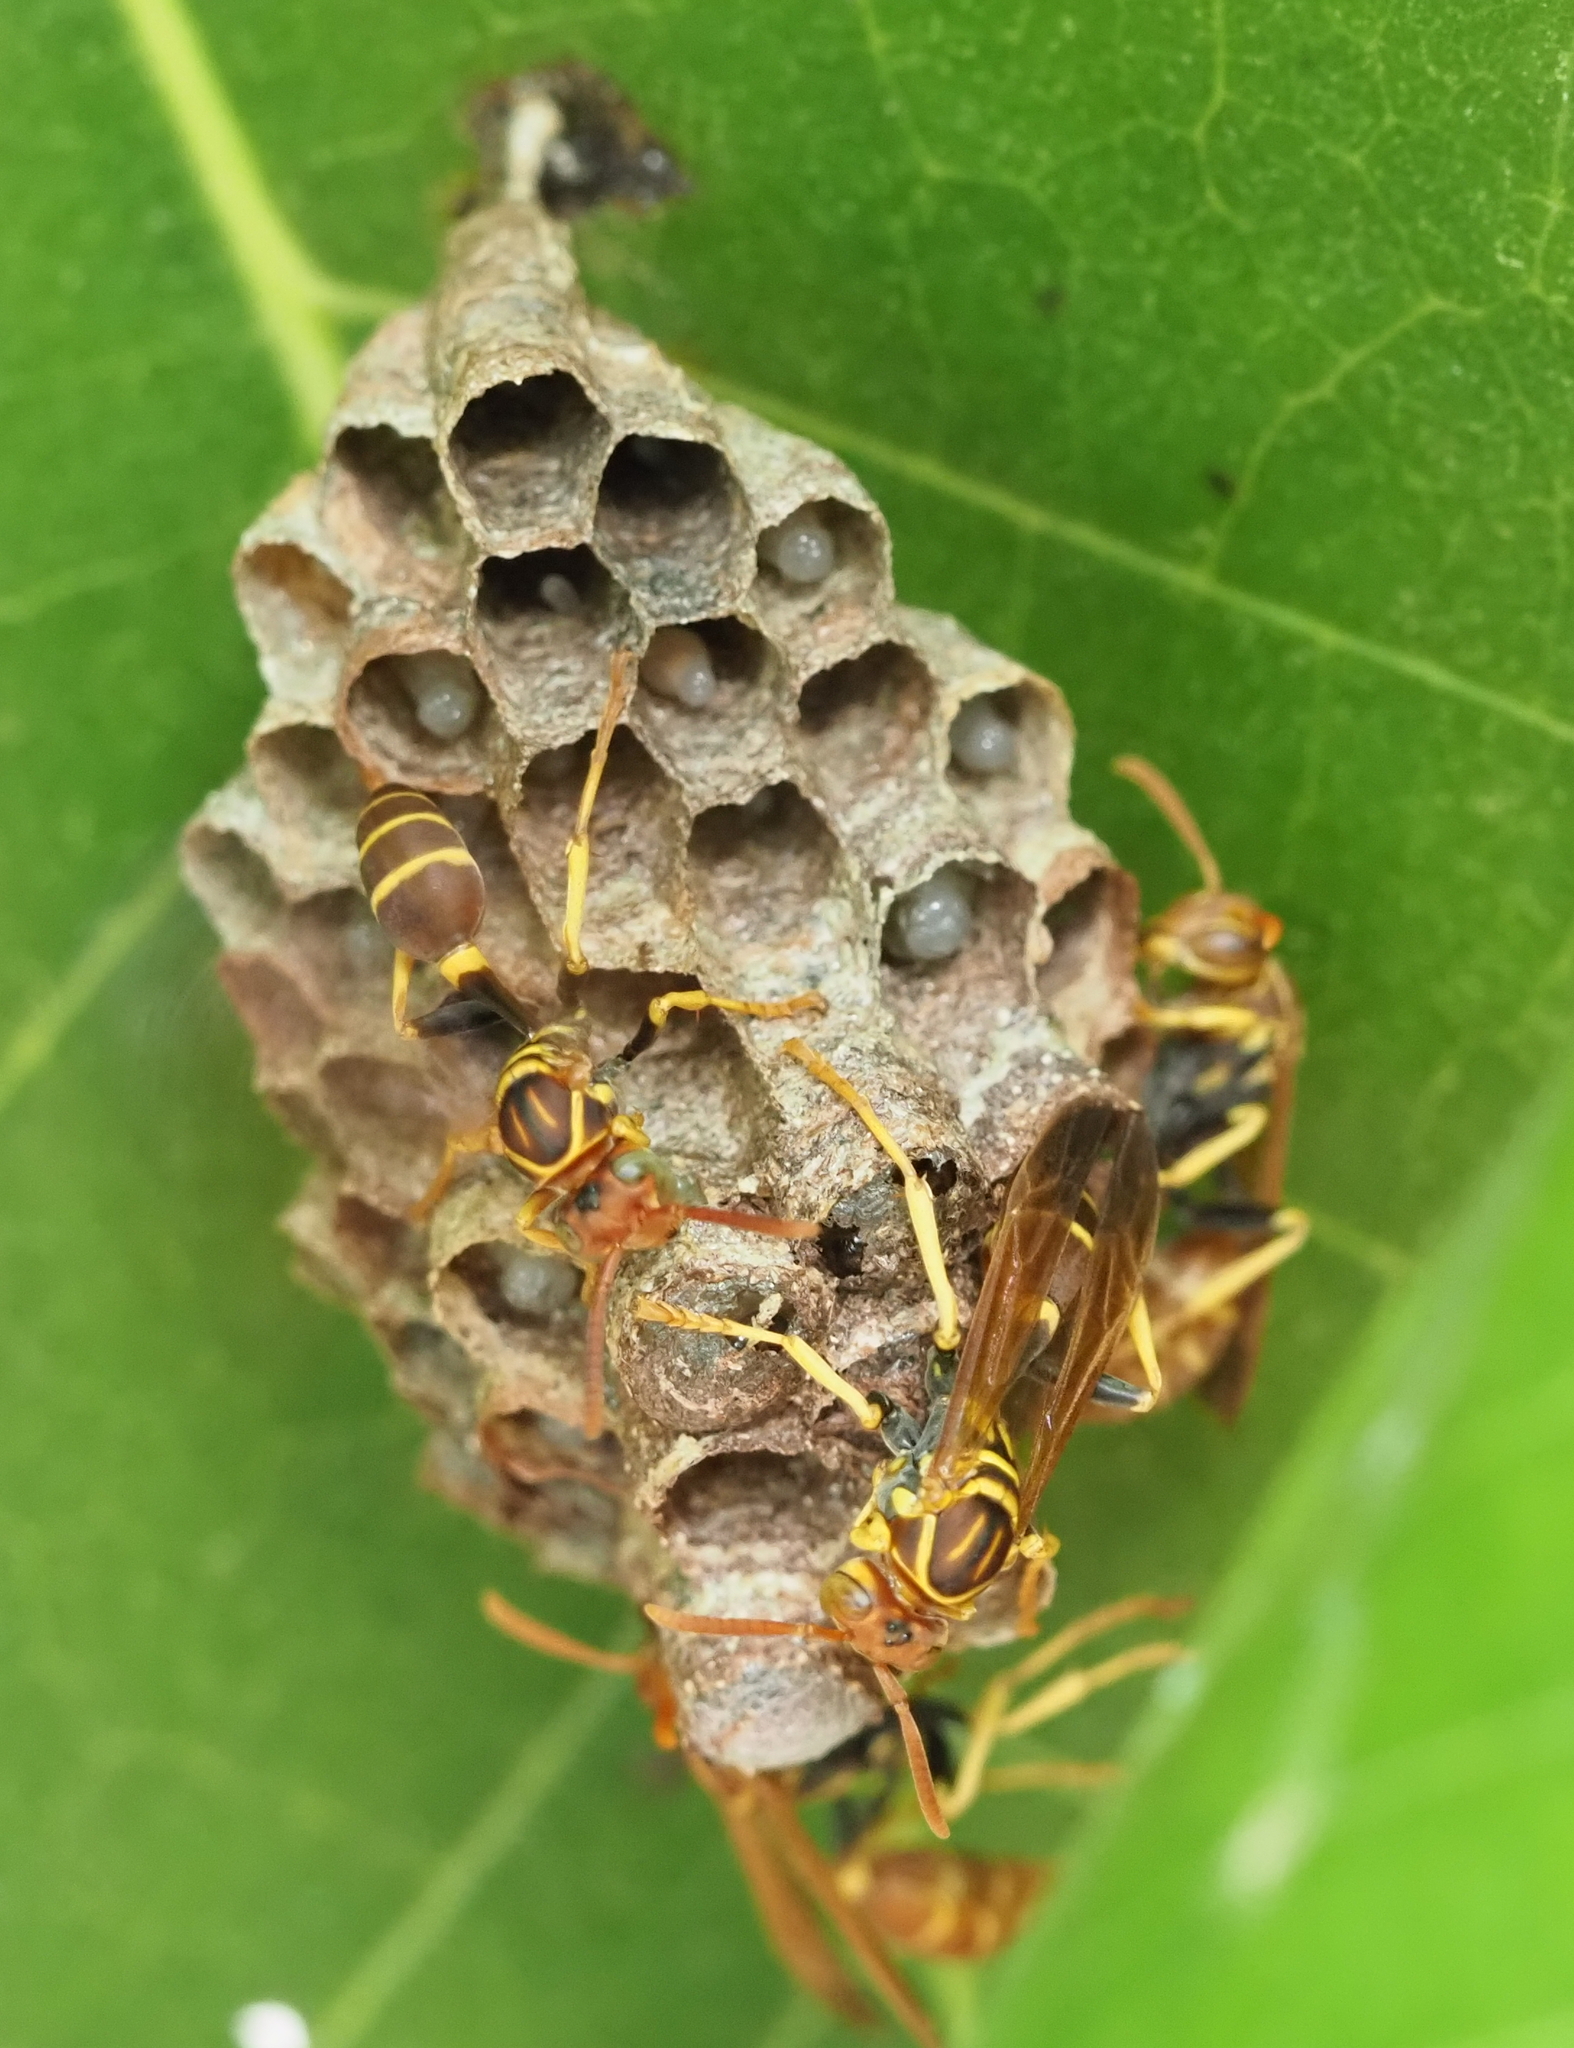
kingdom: Animalia
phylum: Arthropoda
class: Insecta
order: Hymenoptera
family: Vespidae
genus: Mischocyttarus
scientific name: Mischocyttarus phthisicus
